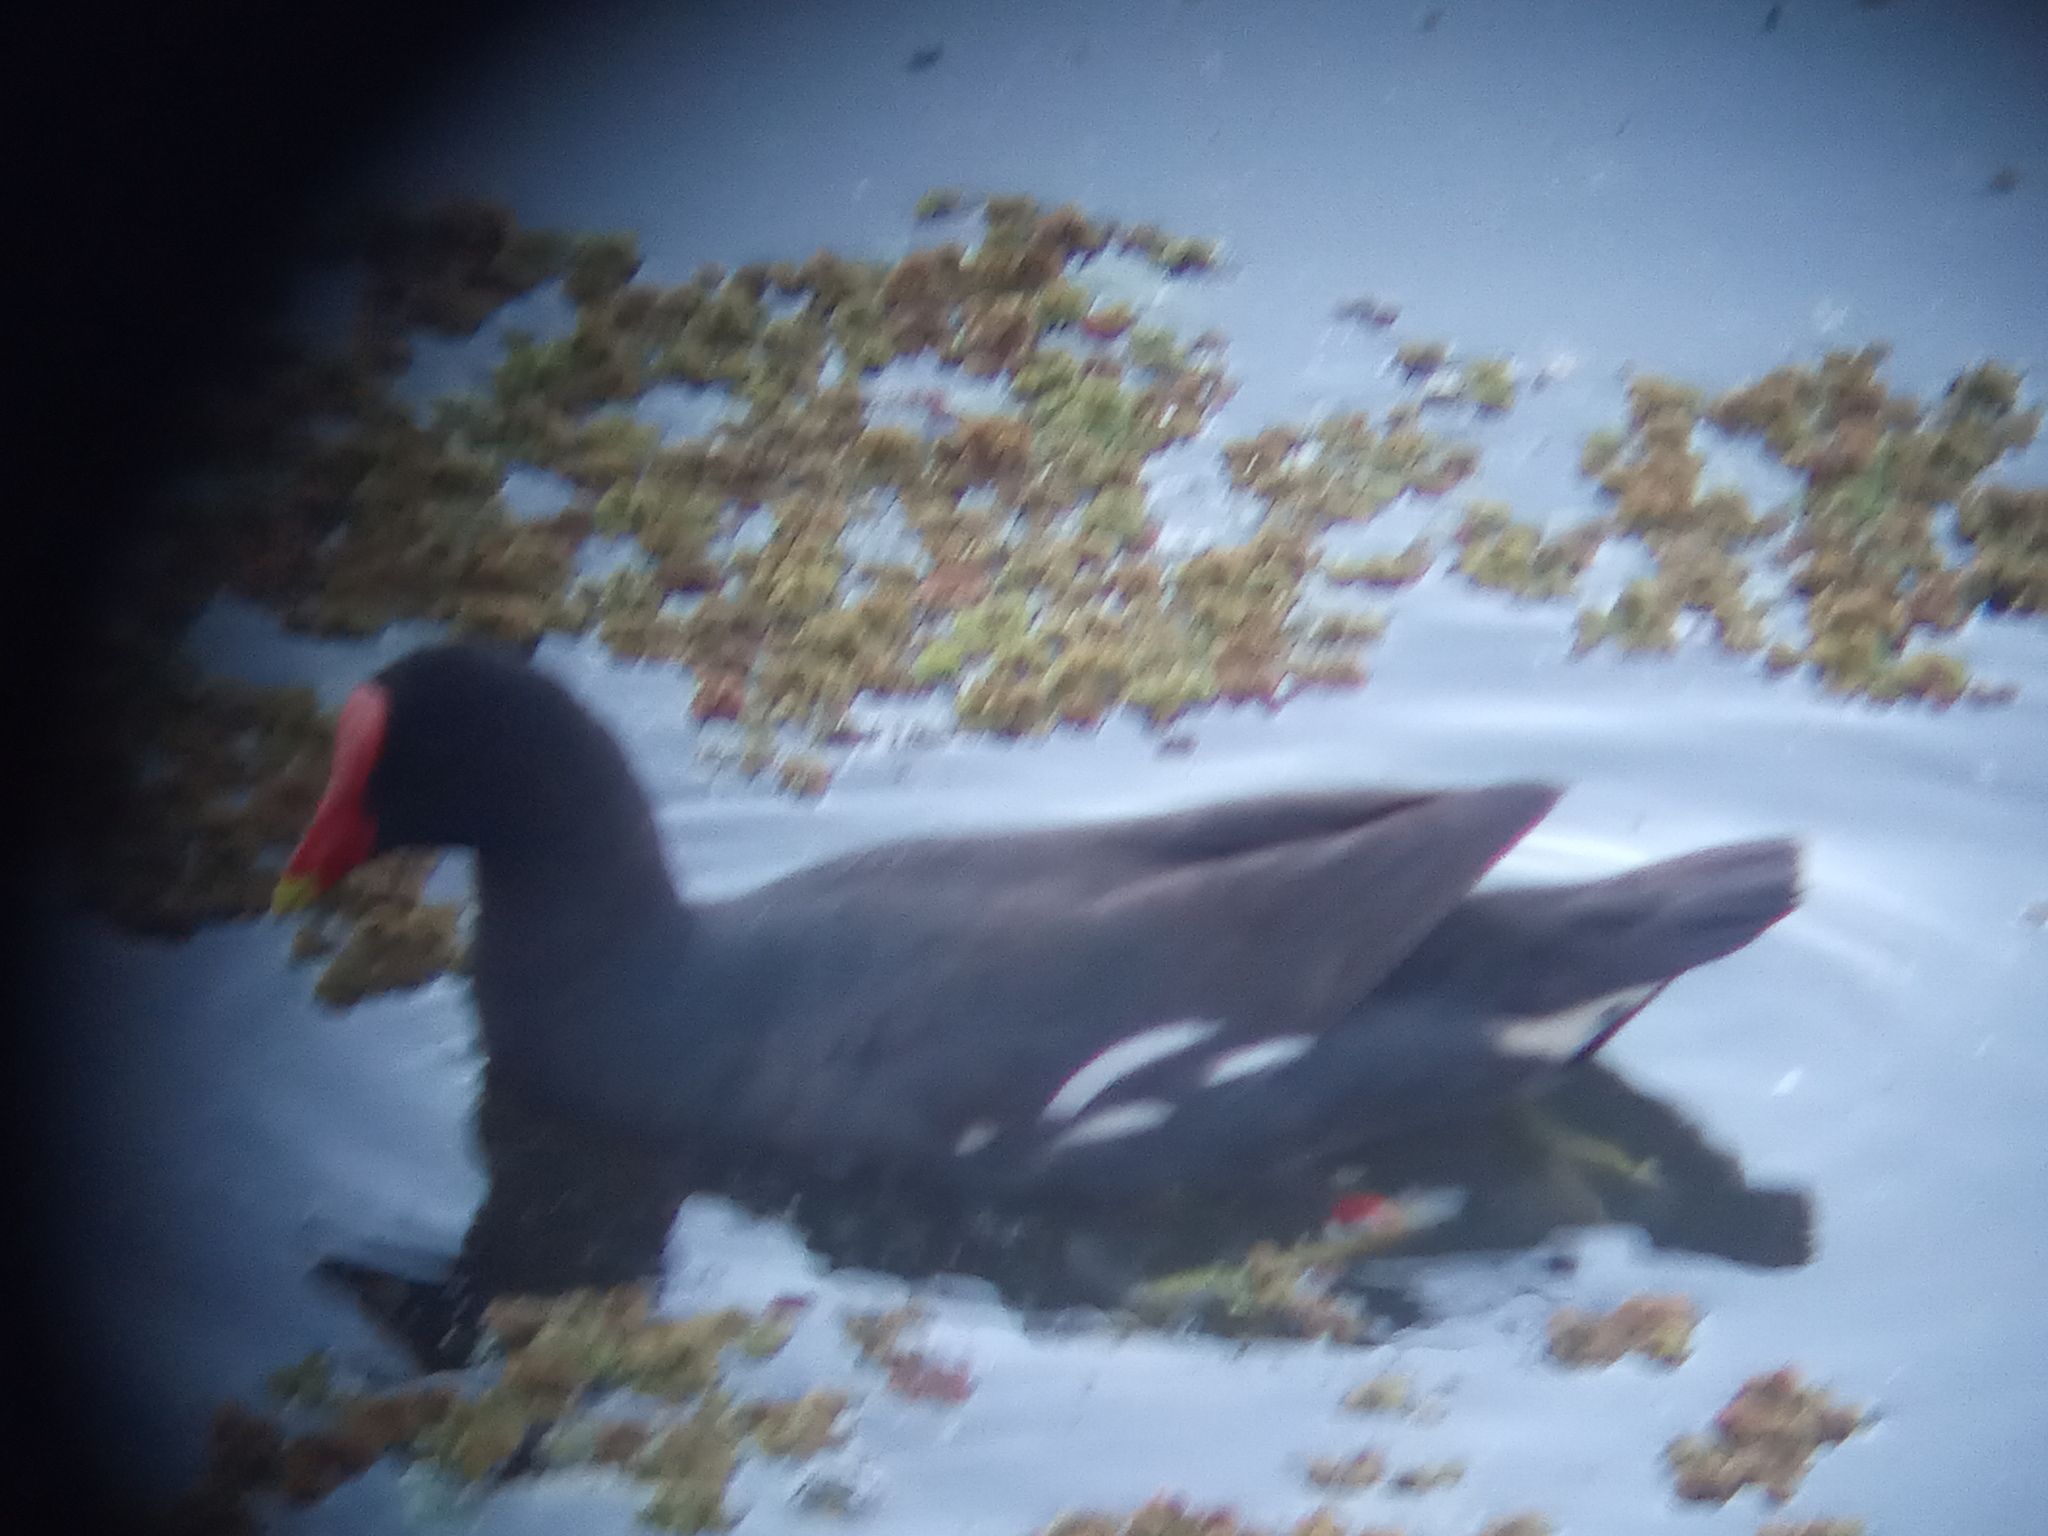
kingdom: Animalia
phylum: Chordata
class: Aves
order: Gruiformes
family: Rallidae
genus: Gallinula
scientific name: Gallinula chloropus
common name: Common moorhen
